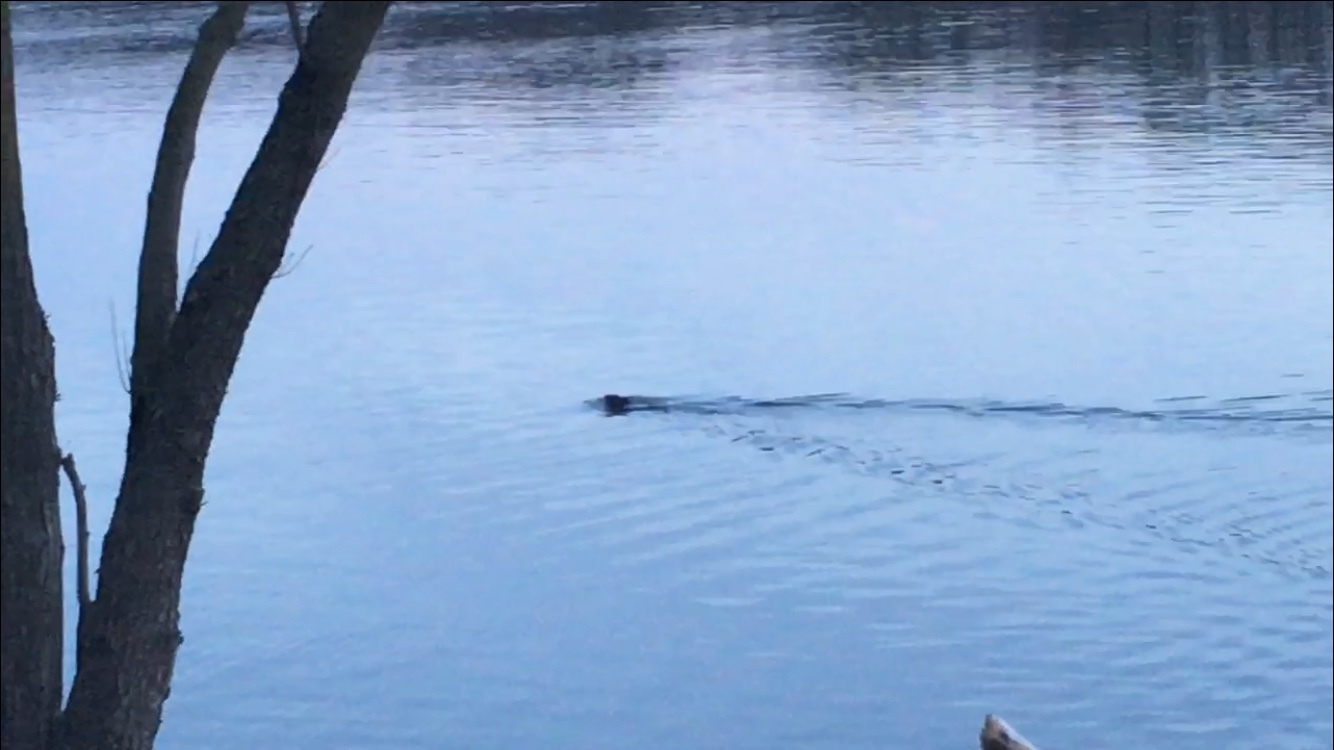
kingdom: Animalia
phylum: Chordata
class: Mammalia
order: Rodentia
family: Castoridae
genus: Castor
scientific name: Castor canadensis
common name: American beaver
